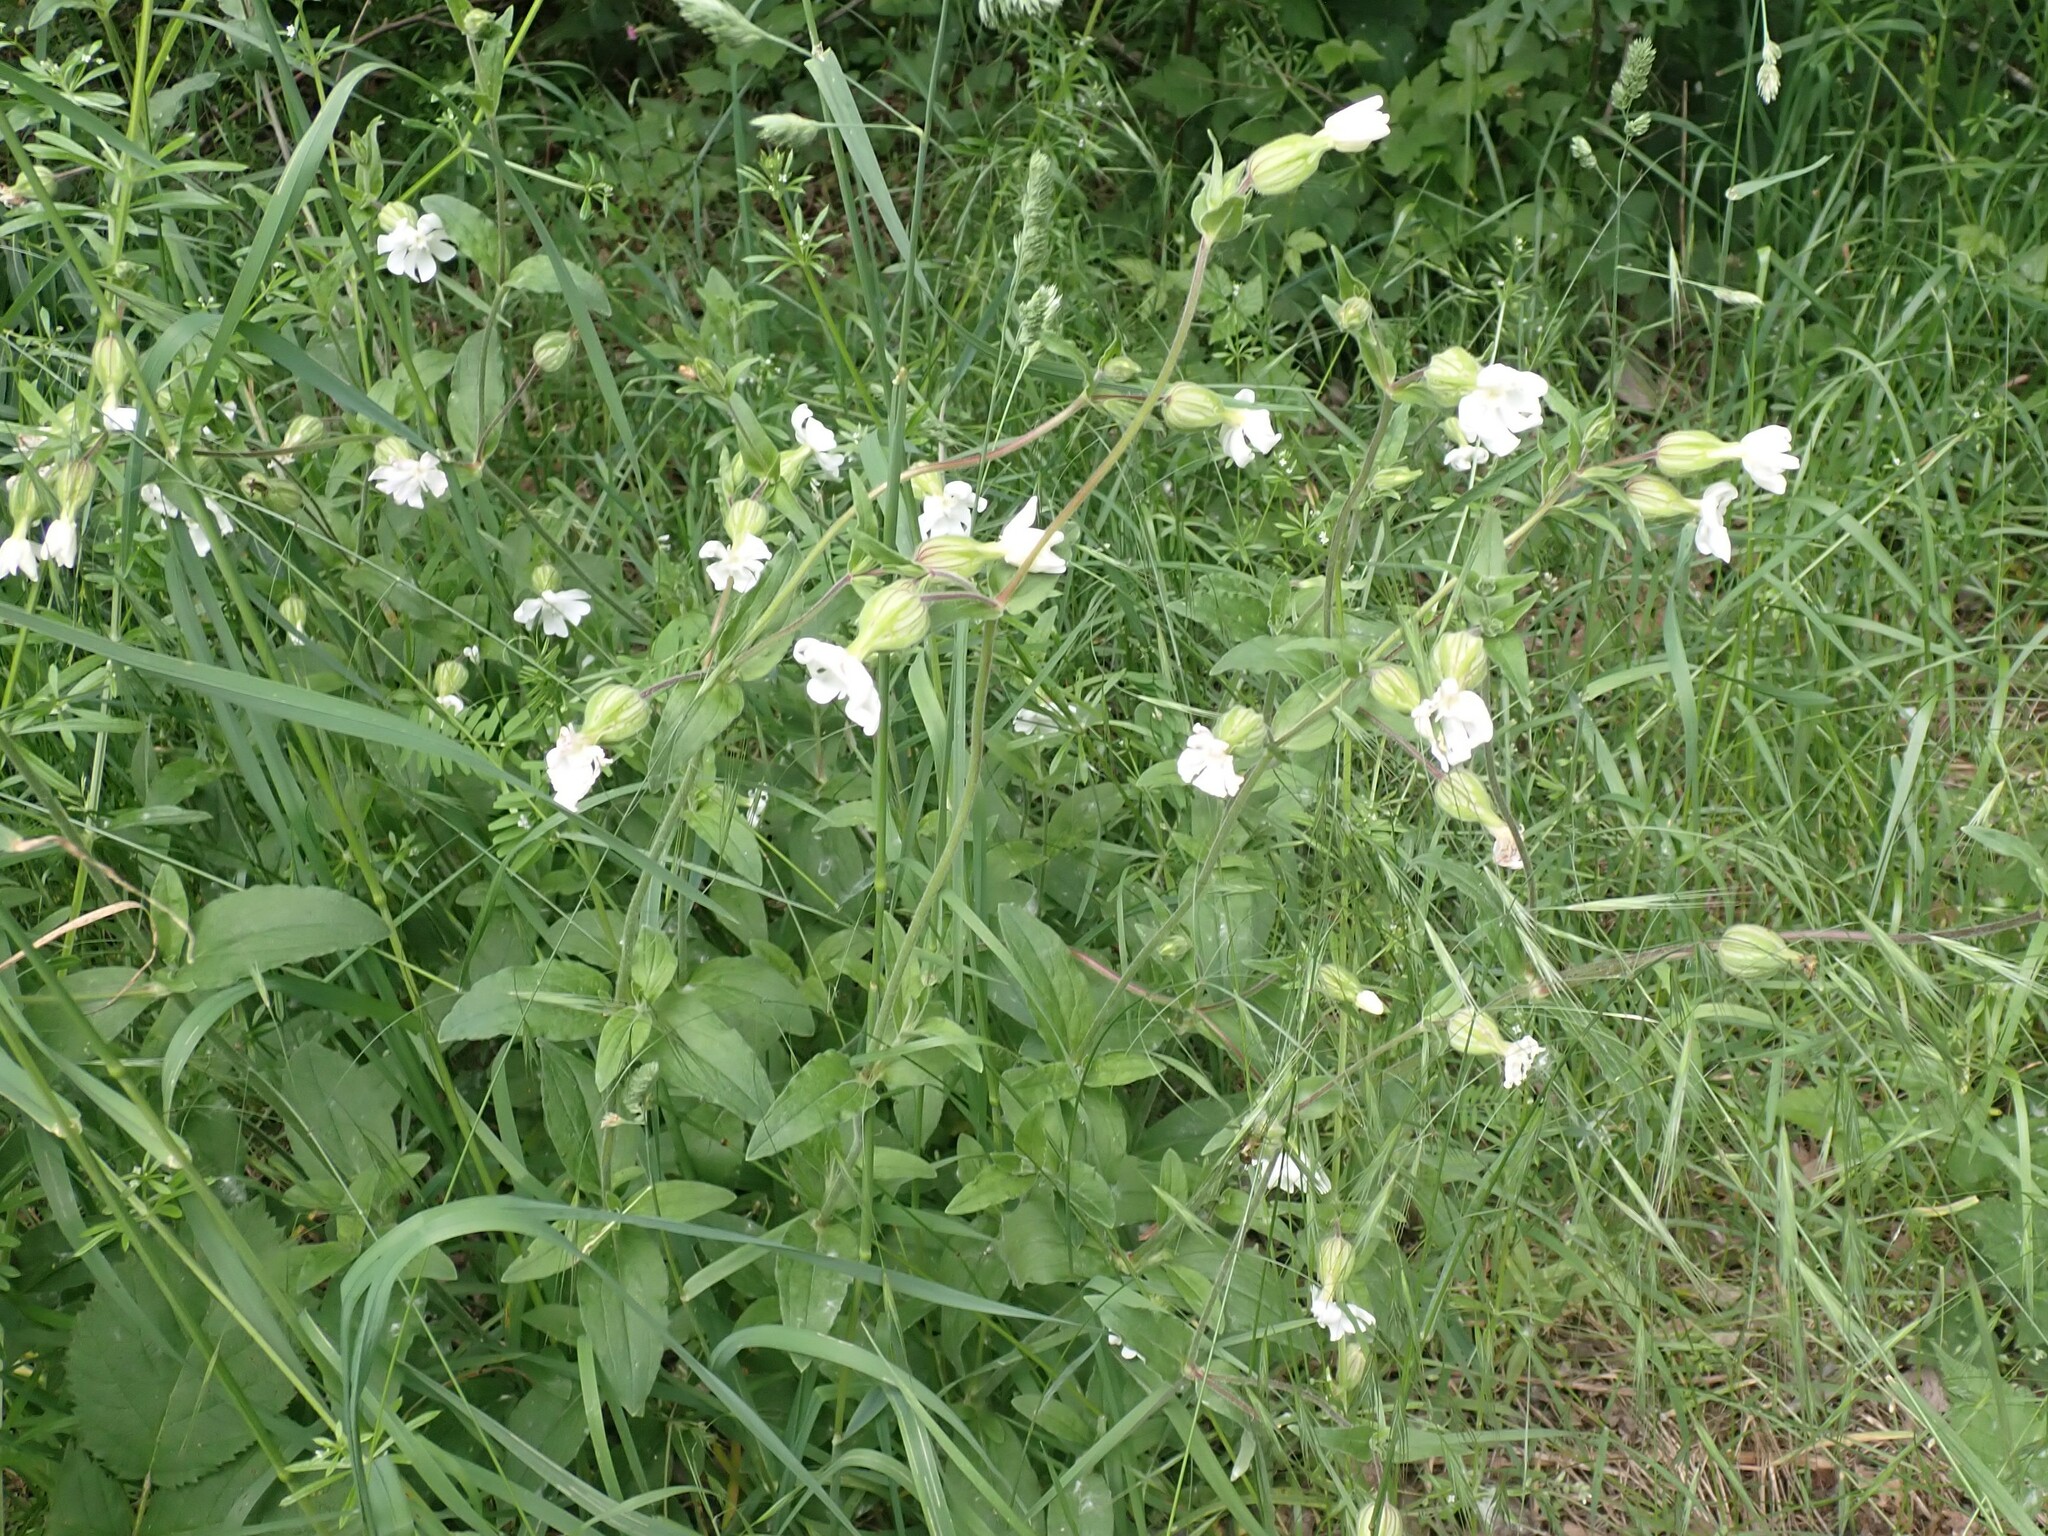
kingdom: Plantae
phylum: Tracheophyta
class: Magnoliopsida
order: Caryophyllales
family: Caryophyllaceae
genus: Silene
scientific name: Silene latifolia
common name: White campion
